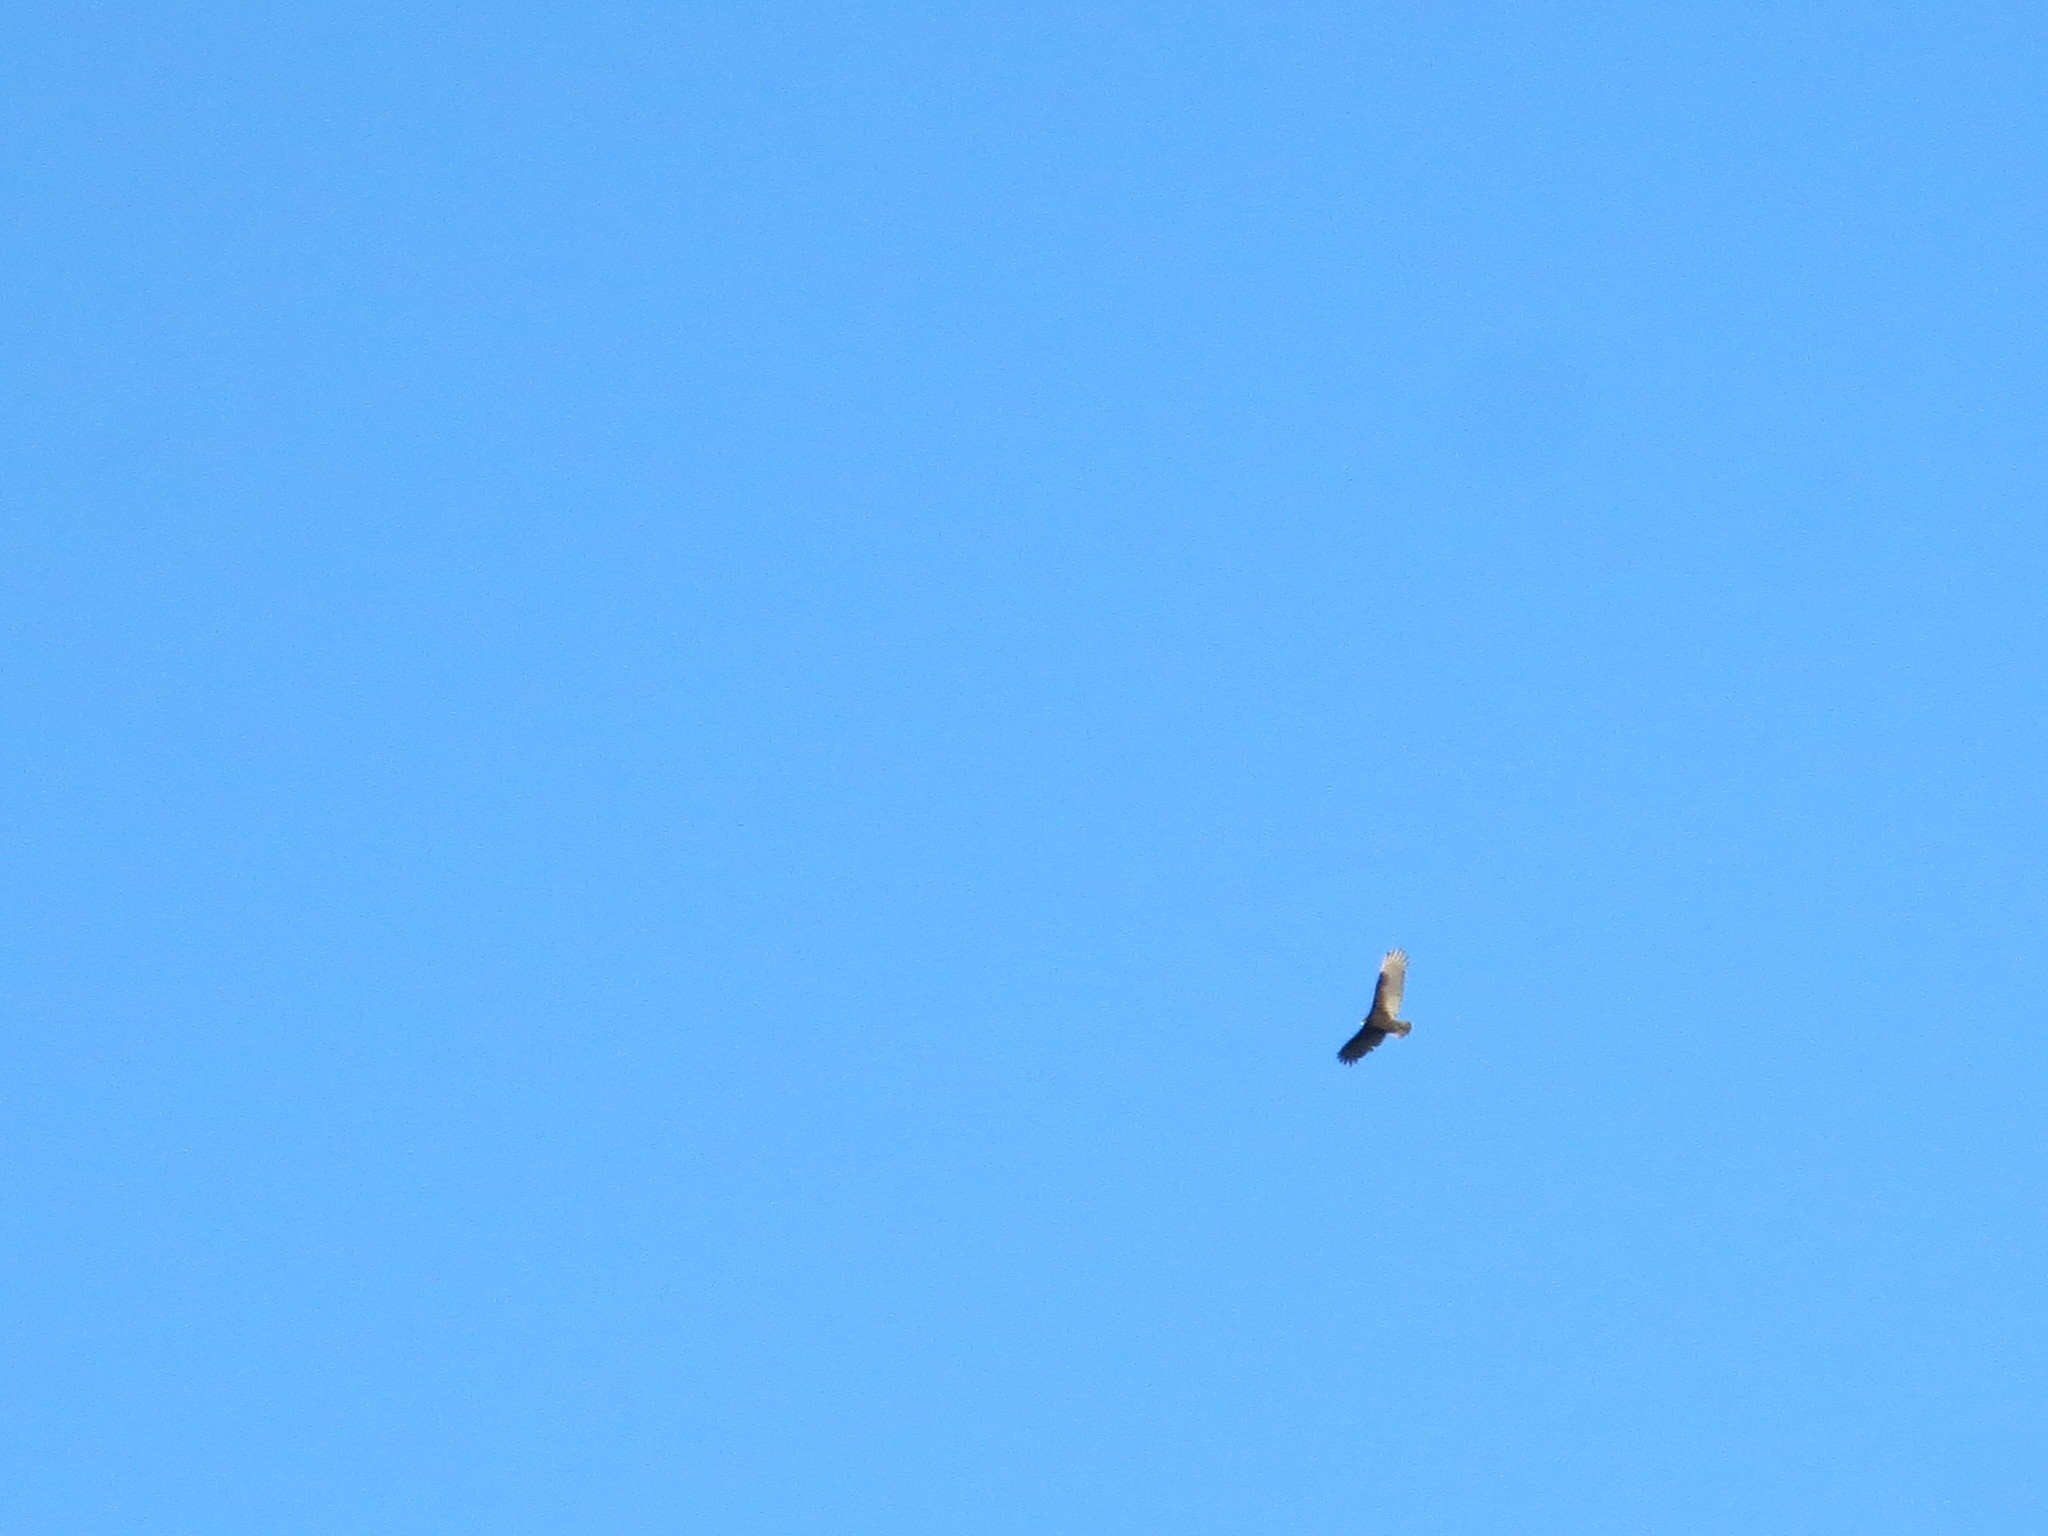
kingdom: Animalia
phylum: Chordata
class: Aves
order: Accipitriformes
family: Cathartidae
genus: Cathartes
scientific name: Cathartes aura
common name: Turkey vulture
